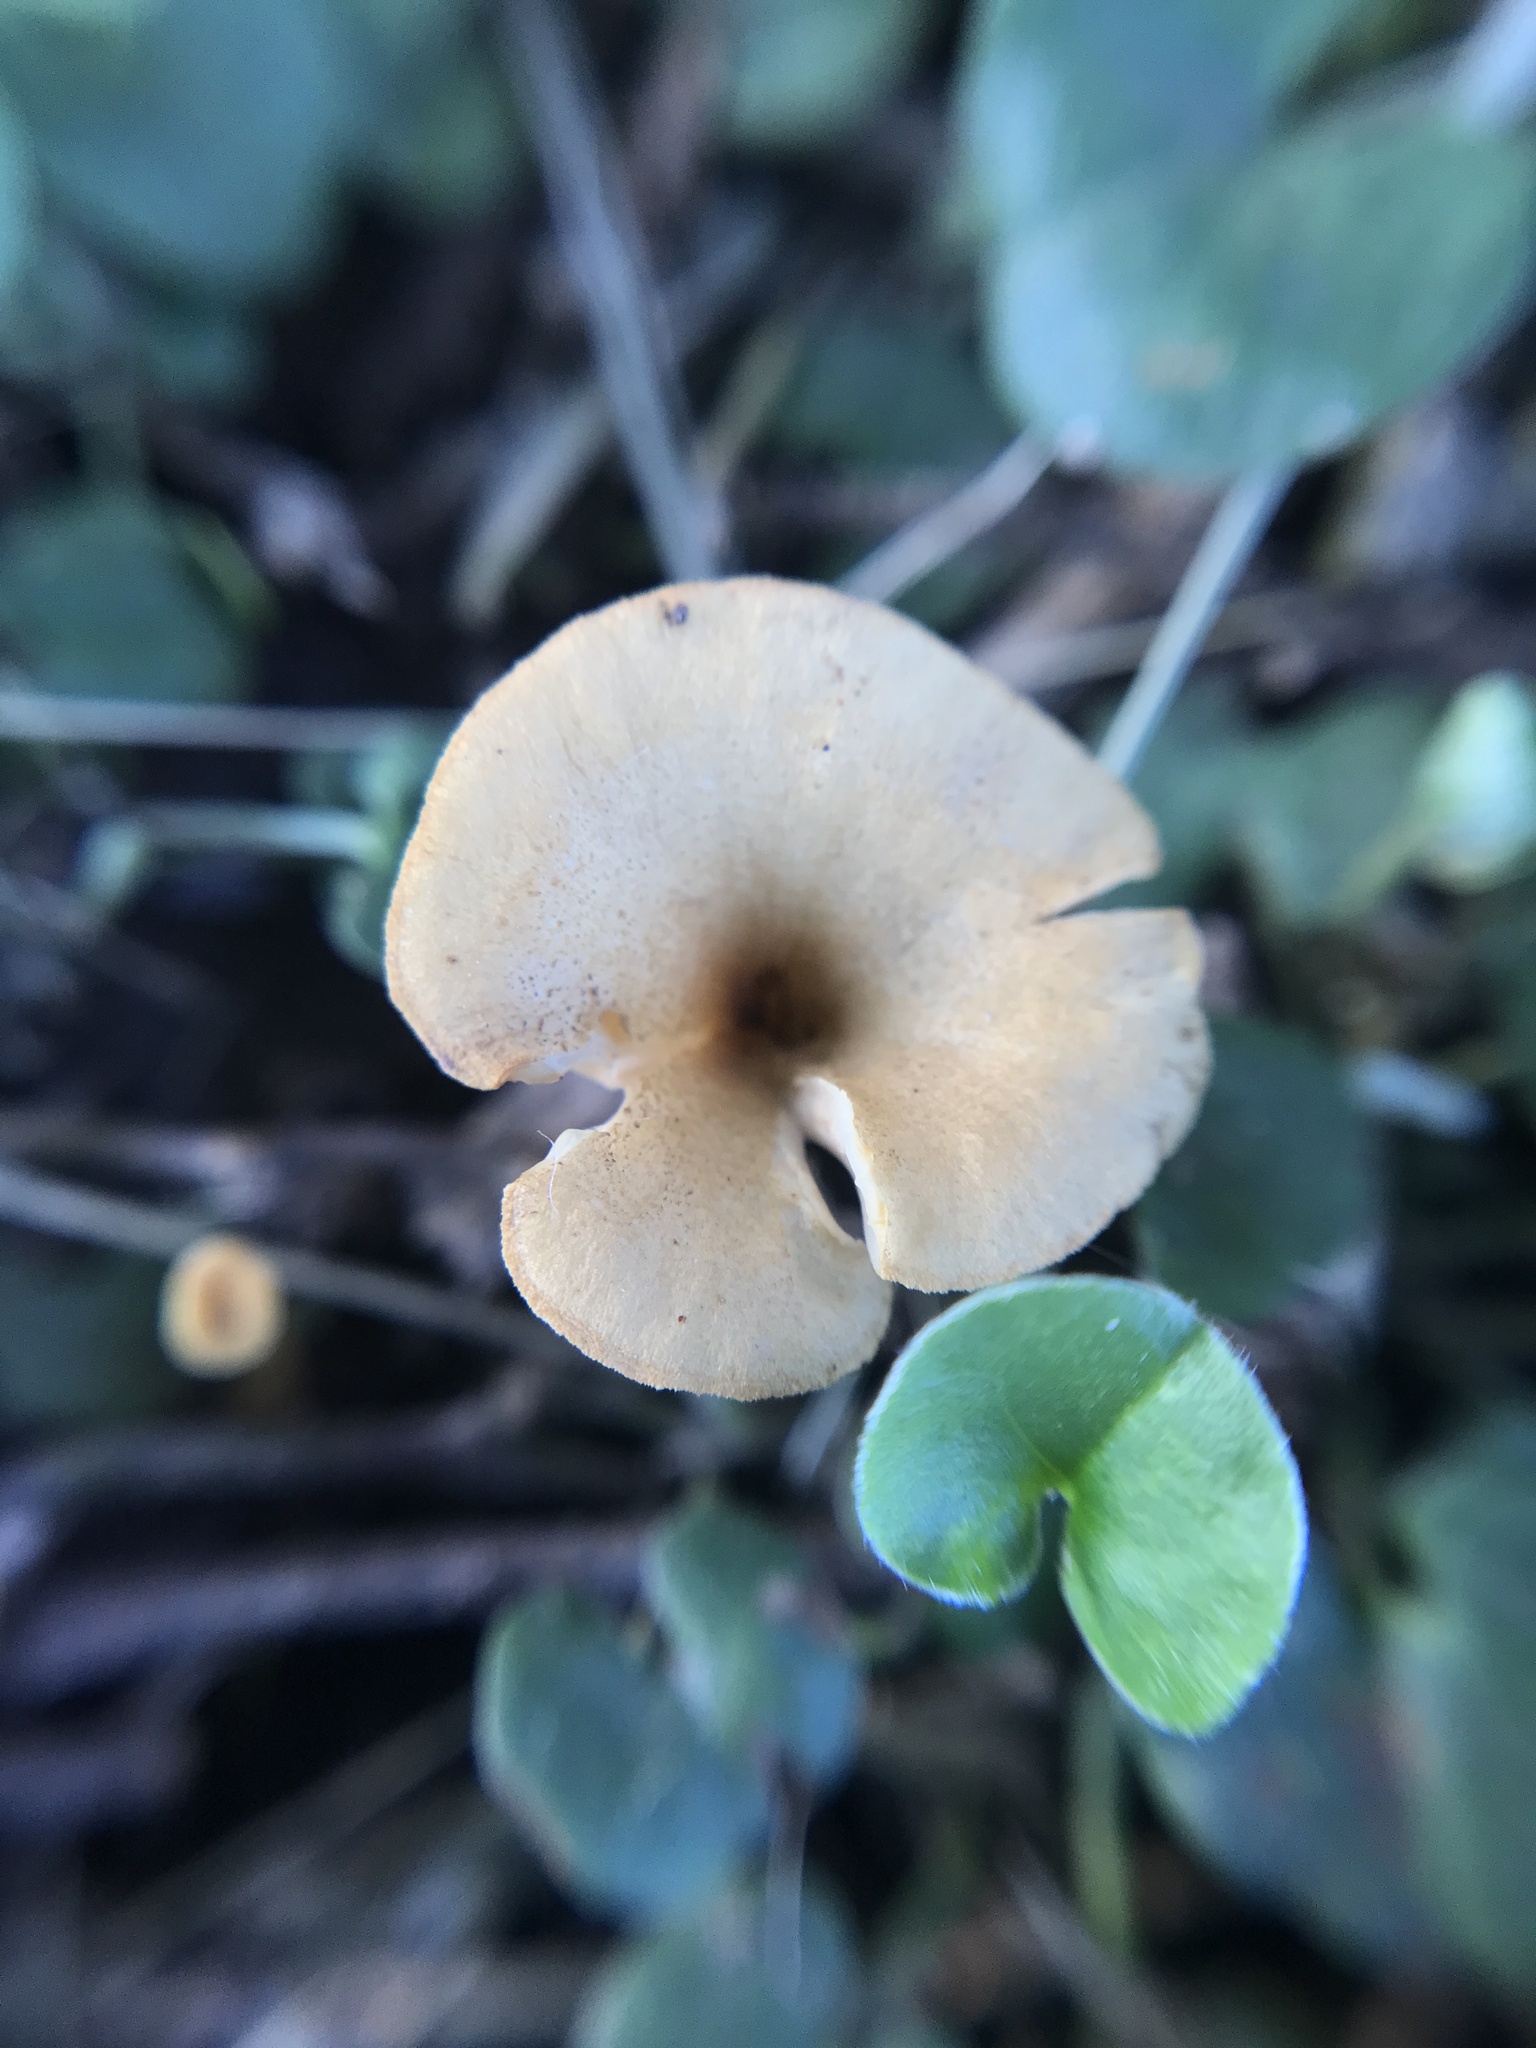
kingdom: Fungi
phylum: Basidiomycota
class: Agaricomycetes
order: Agaricales
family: Tricholomataceae
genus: Melanomphalia
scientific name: Melanomphalia omphaliopsis
